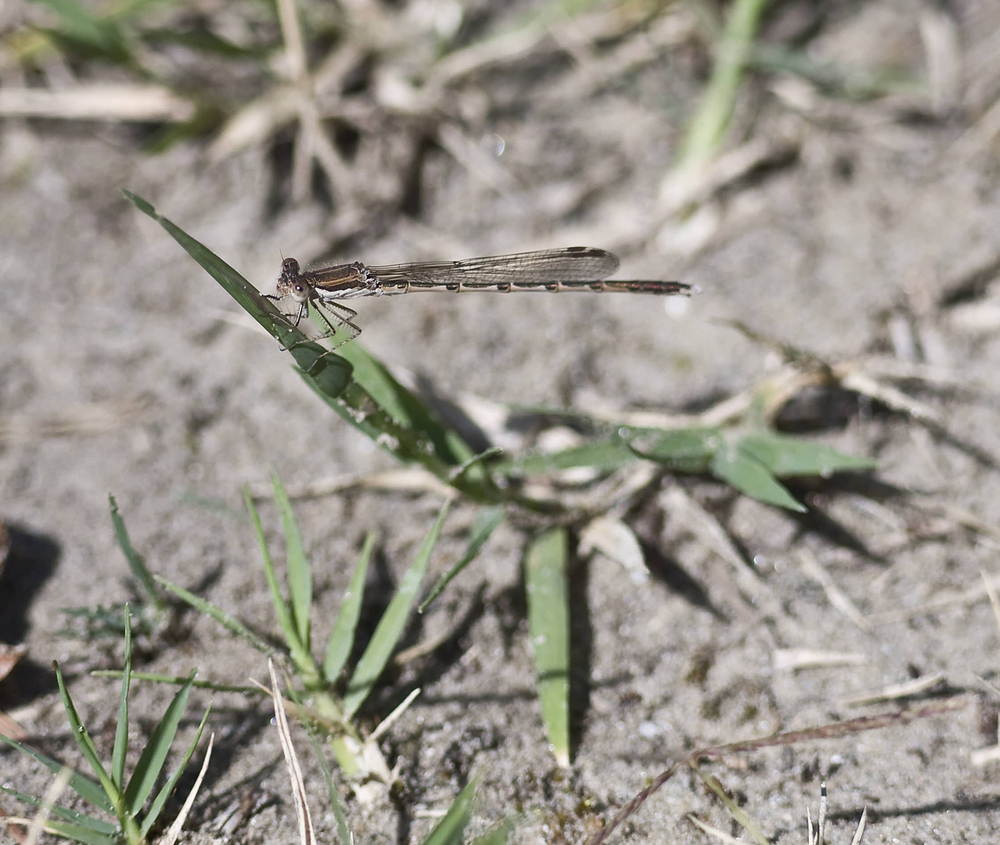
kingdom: Animalia
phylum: Arthropoda
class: Insecta
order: Odonata
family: Lestidae
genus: Sympecma
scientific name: Sympecma fusca
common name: Common winter damsel
